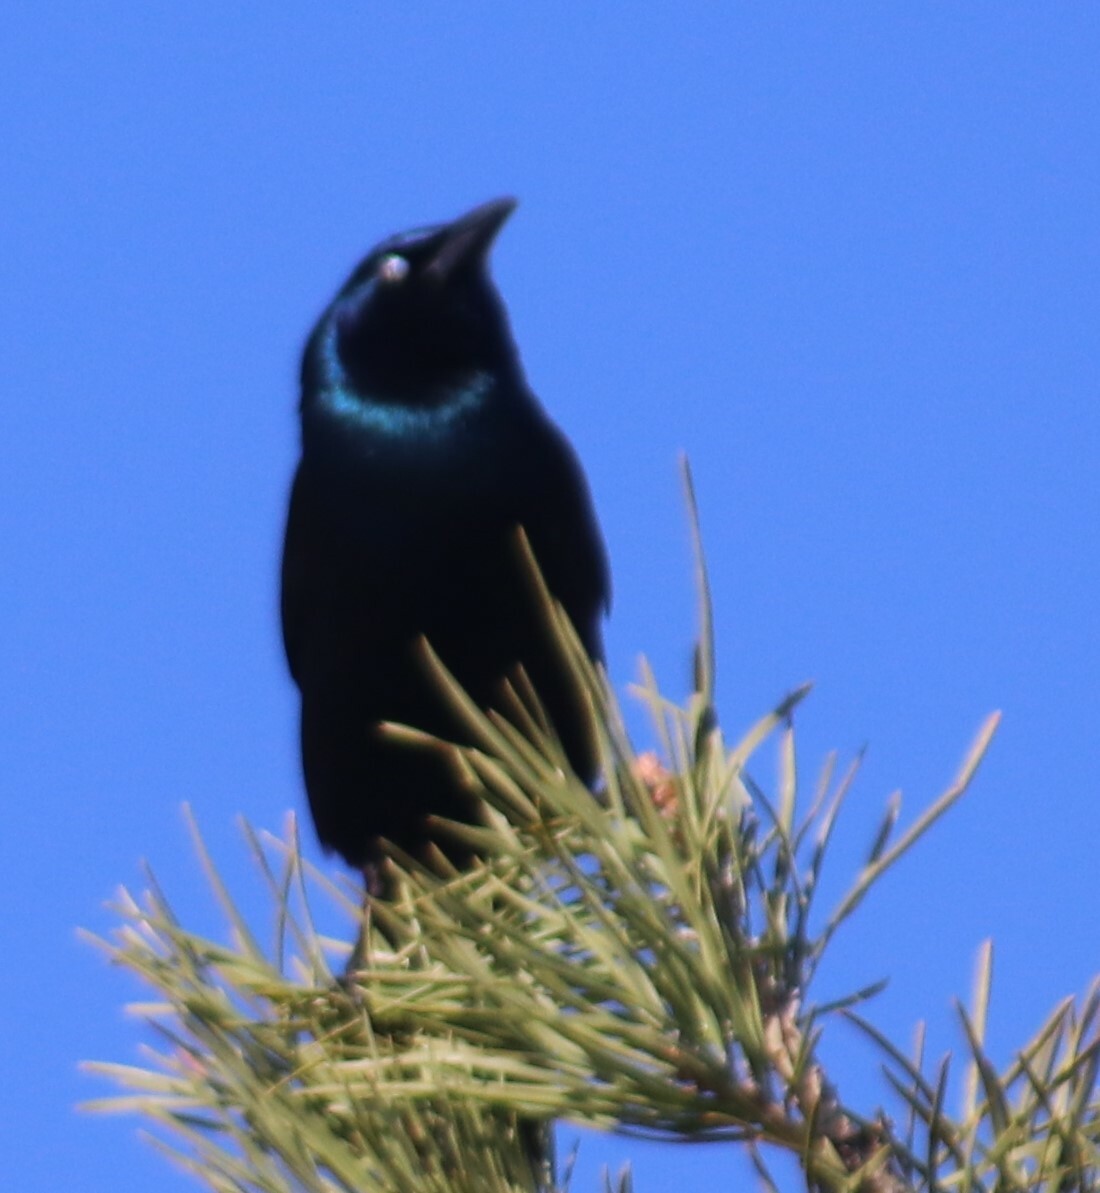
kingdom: Animalia
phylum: Chordata
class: Aves
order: Passeriformes
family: Icteridae
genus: Quiscalus
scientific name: Quiscalus quiscula
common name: Common grackle
